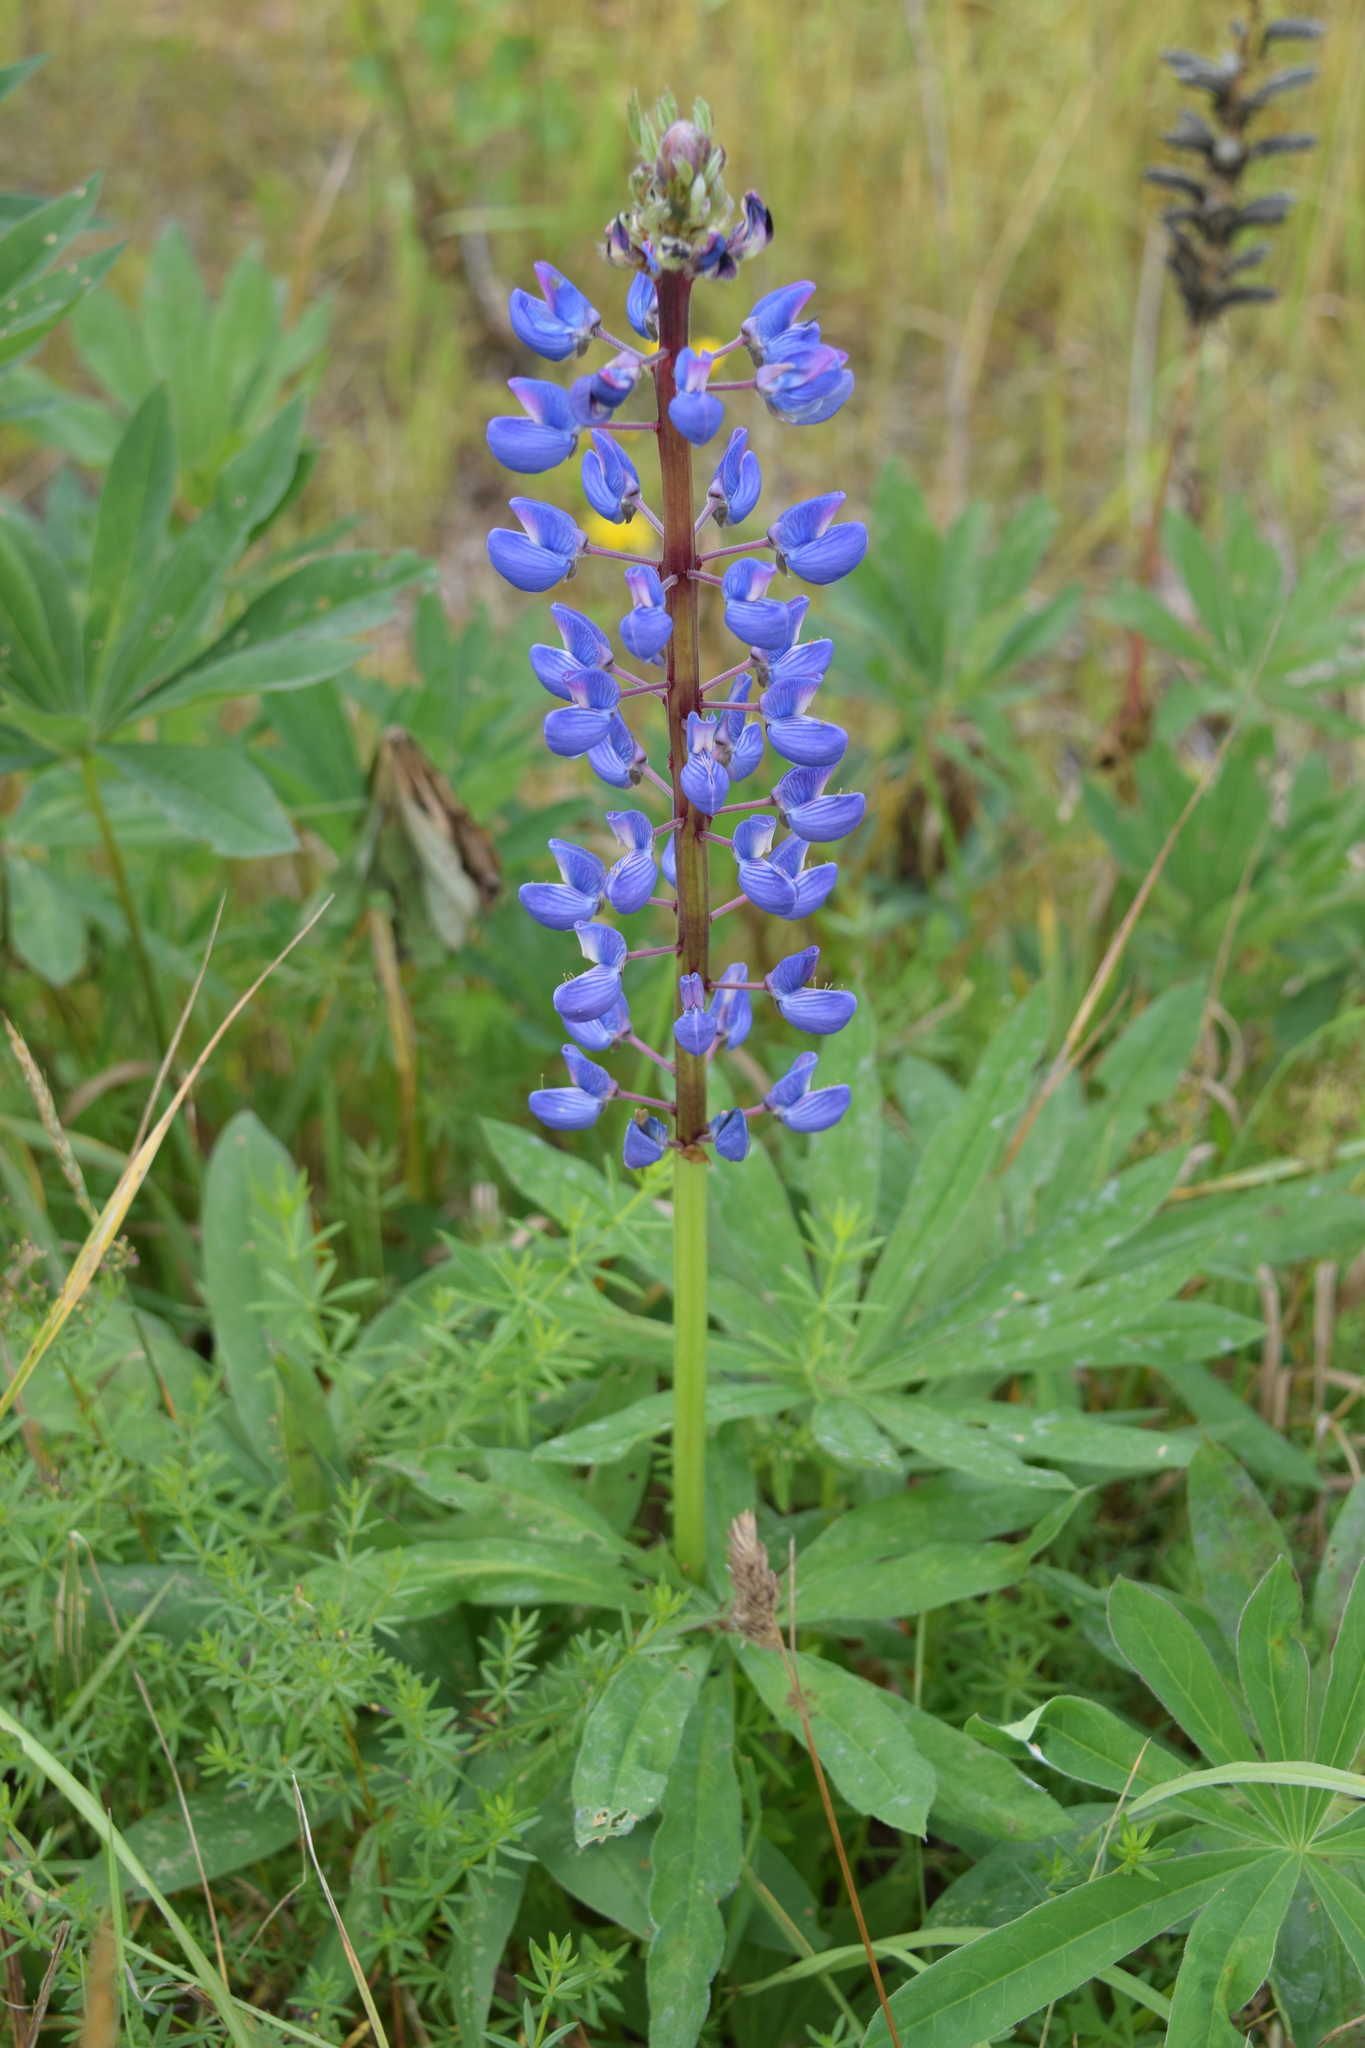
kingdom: Plantae
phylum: Tracheophyta
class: Magnoliopsida
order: Fabales
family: Fabaceae
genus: Lupinus
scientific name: Lupinus polyphyllus
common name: Garden lupin
